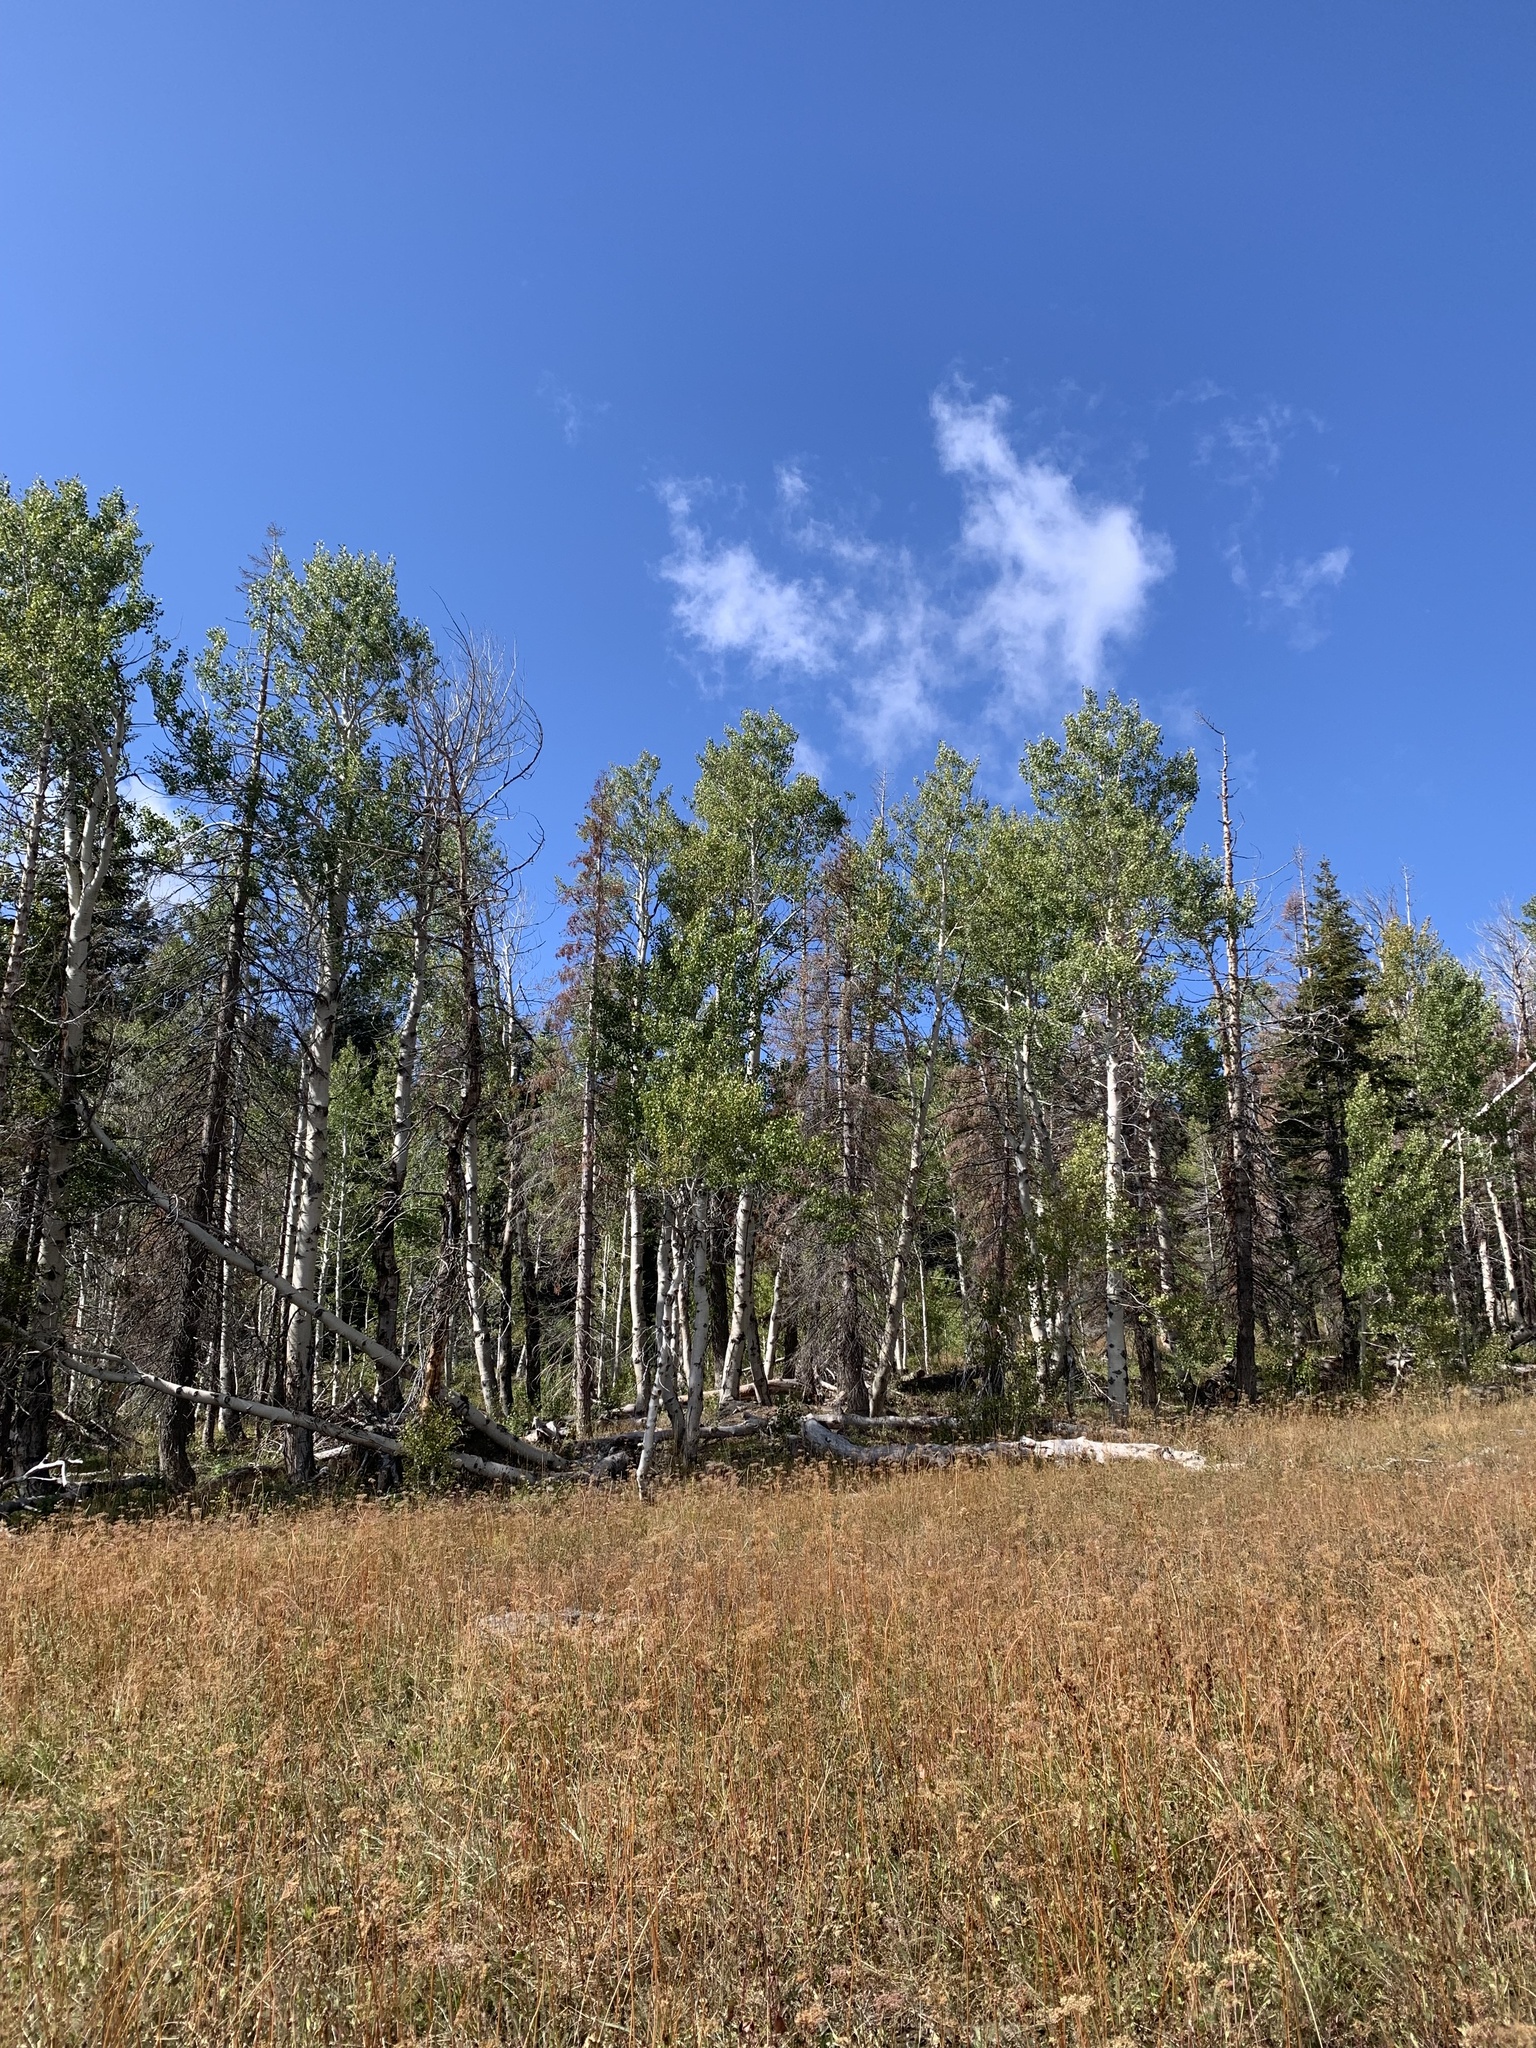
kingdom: Plantae
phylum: Tracheophyta
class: Magnoliopsida
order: Malpighiales
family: Salicaceae
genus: Populus
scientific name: Populus tremuloides
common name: Quaking aspen
